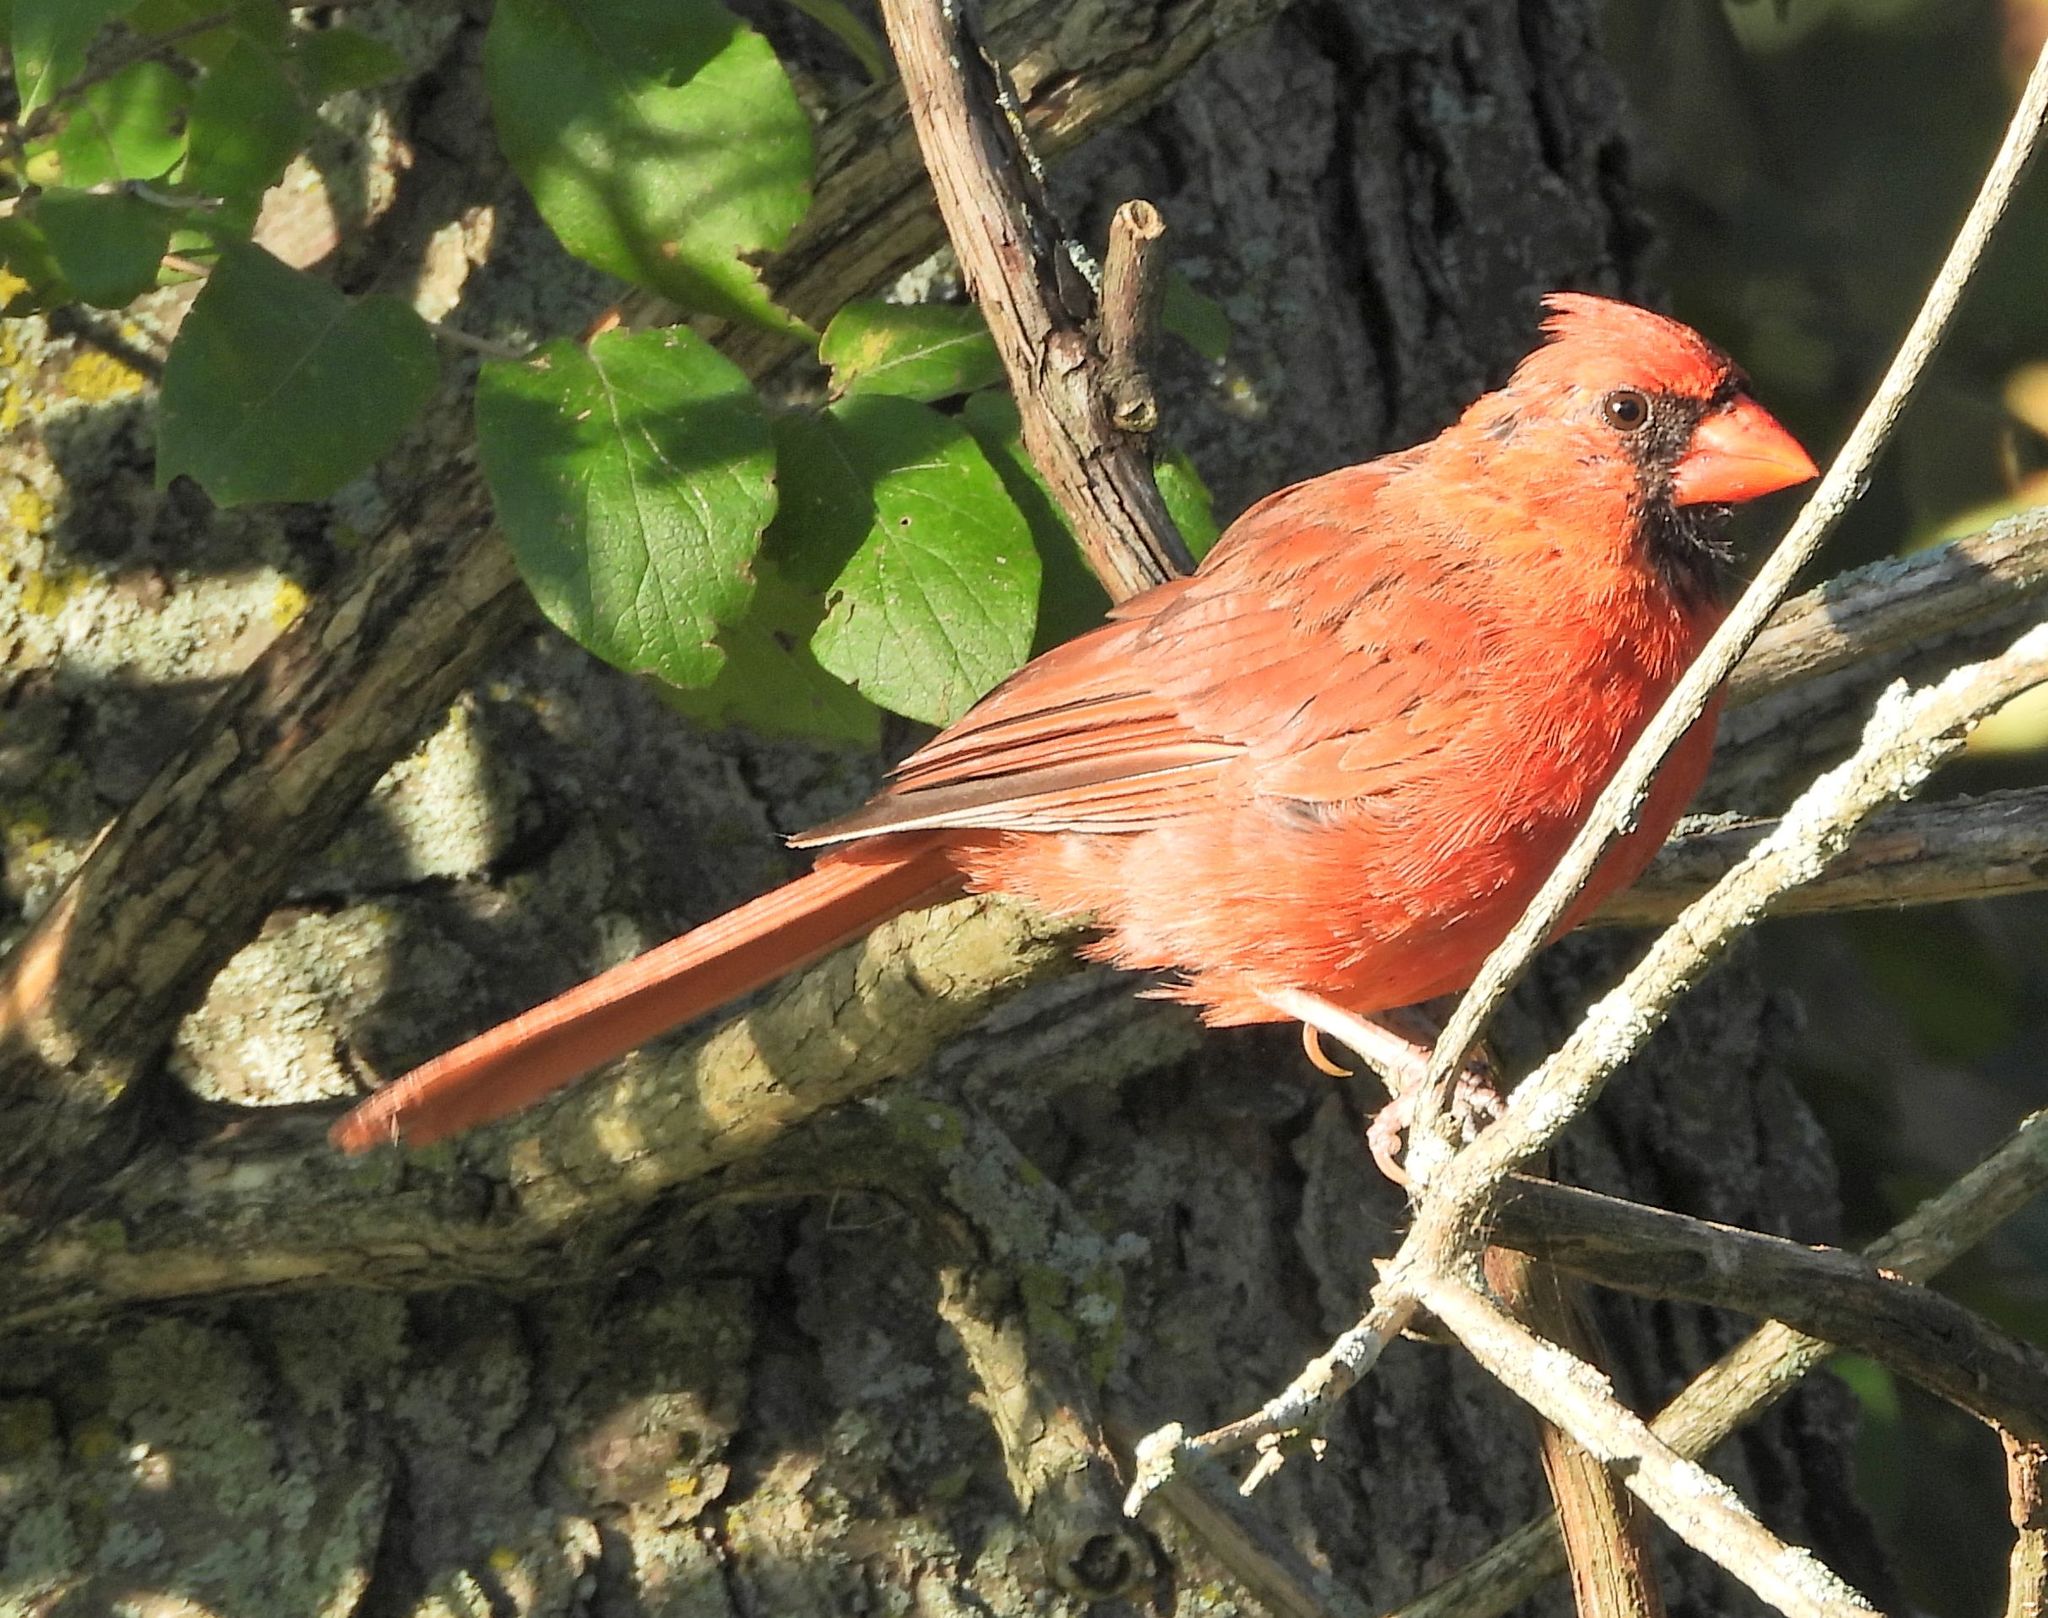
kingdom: Animalia
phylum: Chordata
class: Aves
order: Passeriformes
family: Cardinalidae
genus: Cardinalis
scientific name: Cardinalis cardinalis
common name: Northern cardinal
